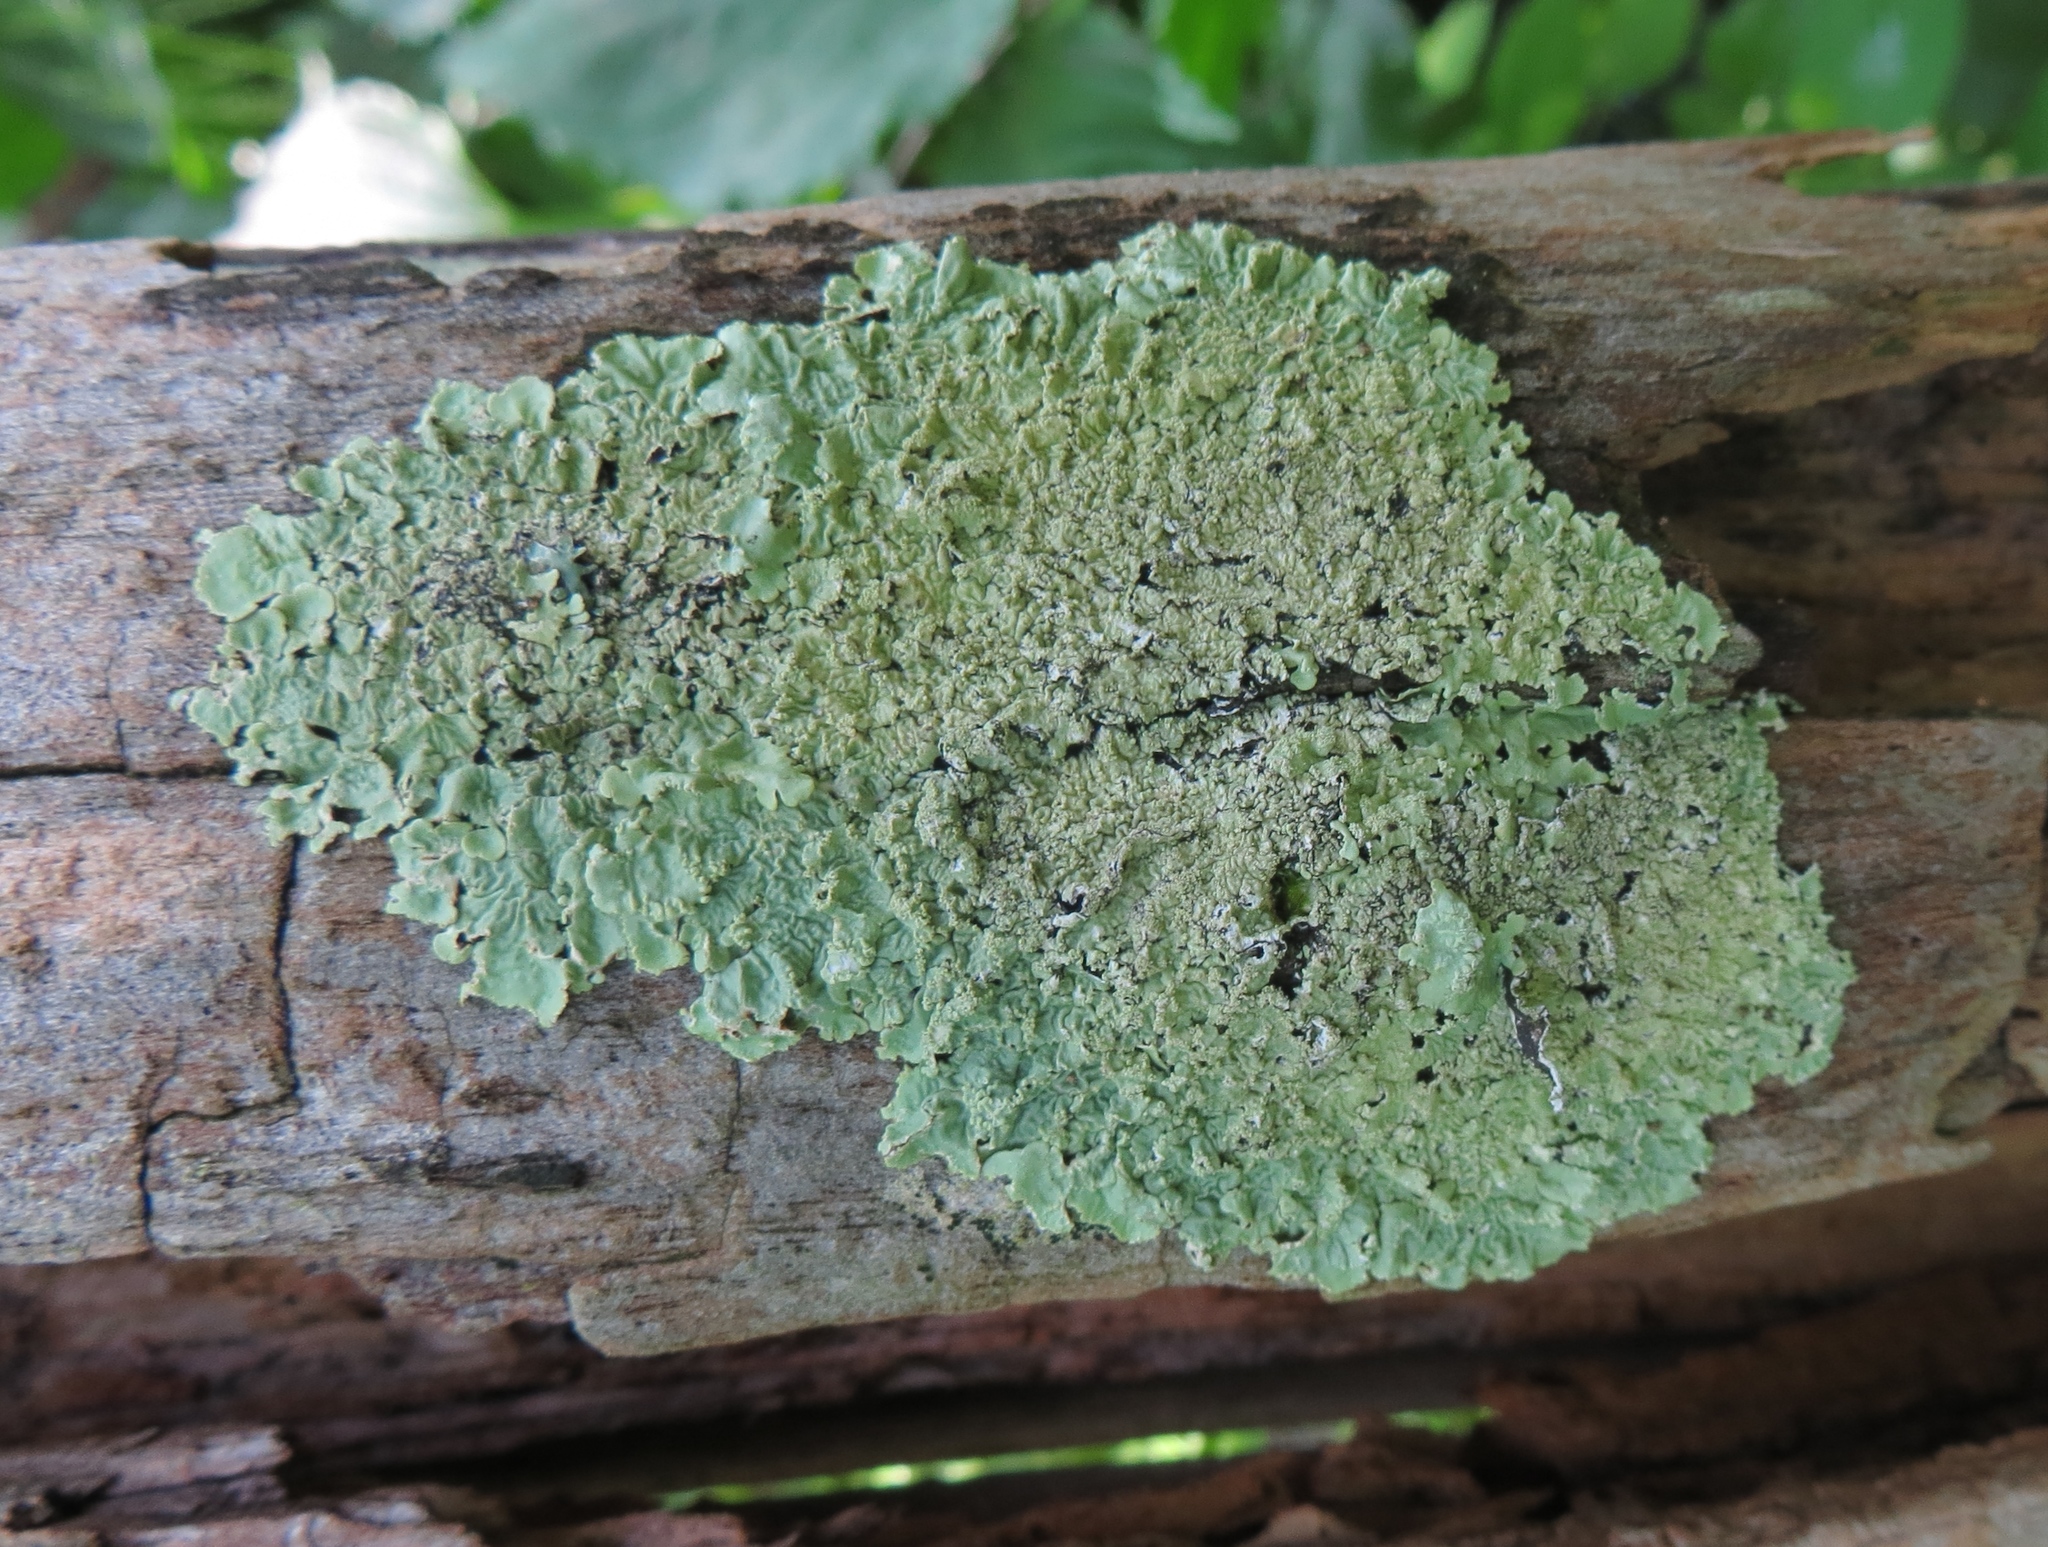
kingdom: Fungi
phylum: Ascomycota
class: Lecanoromycetes
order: Lecanorales
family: Parmeliaceae
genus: Flavoparmelia
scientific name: Flavoparmelia caperata
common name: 40-mile per hour lichen
